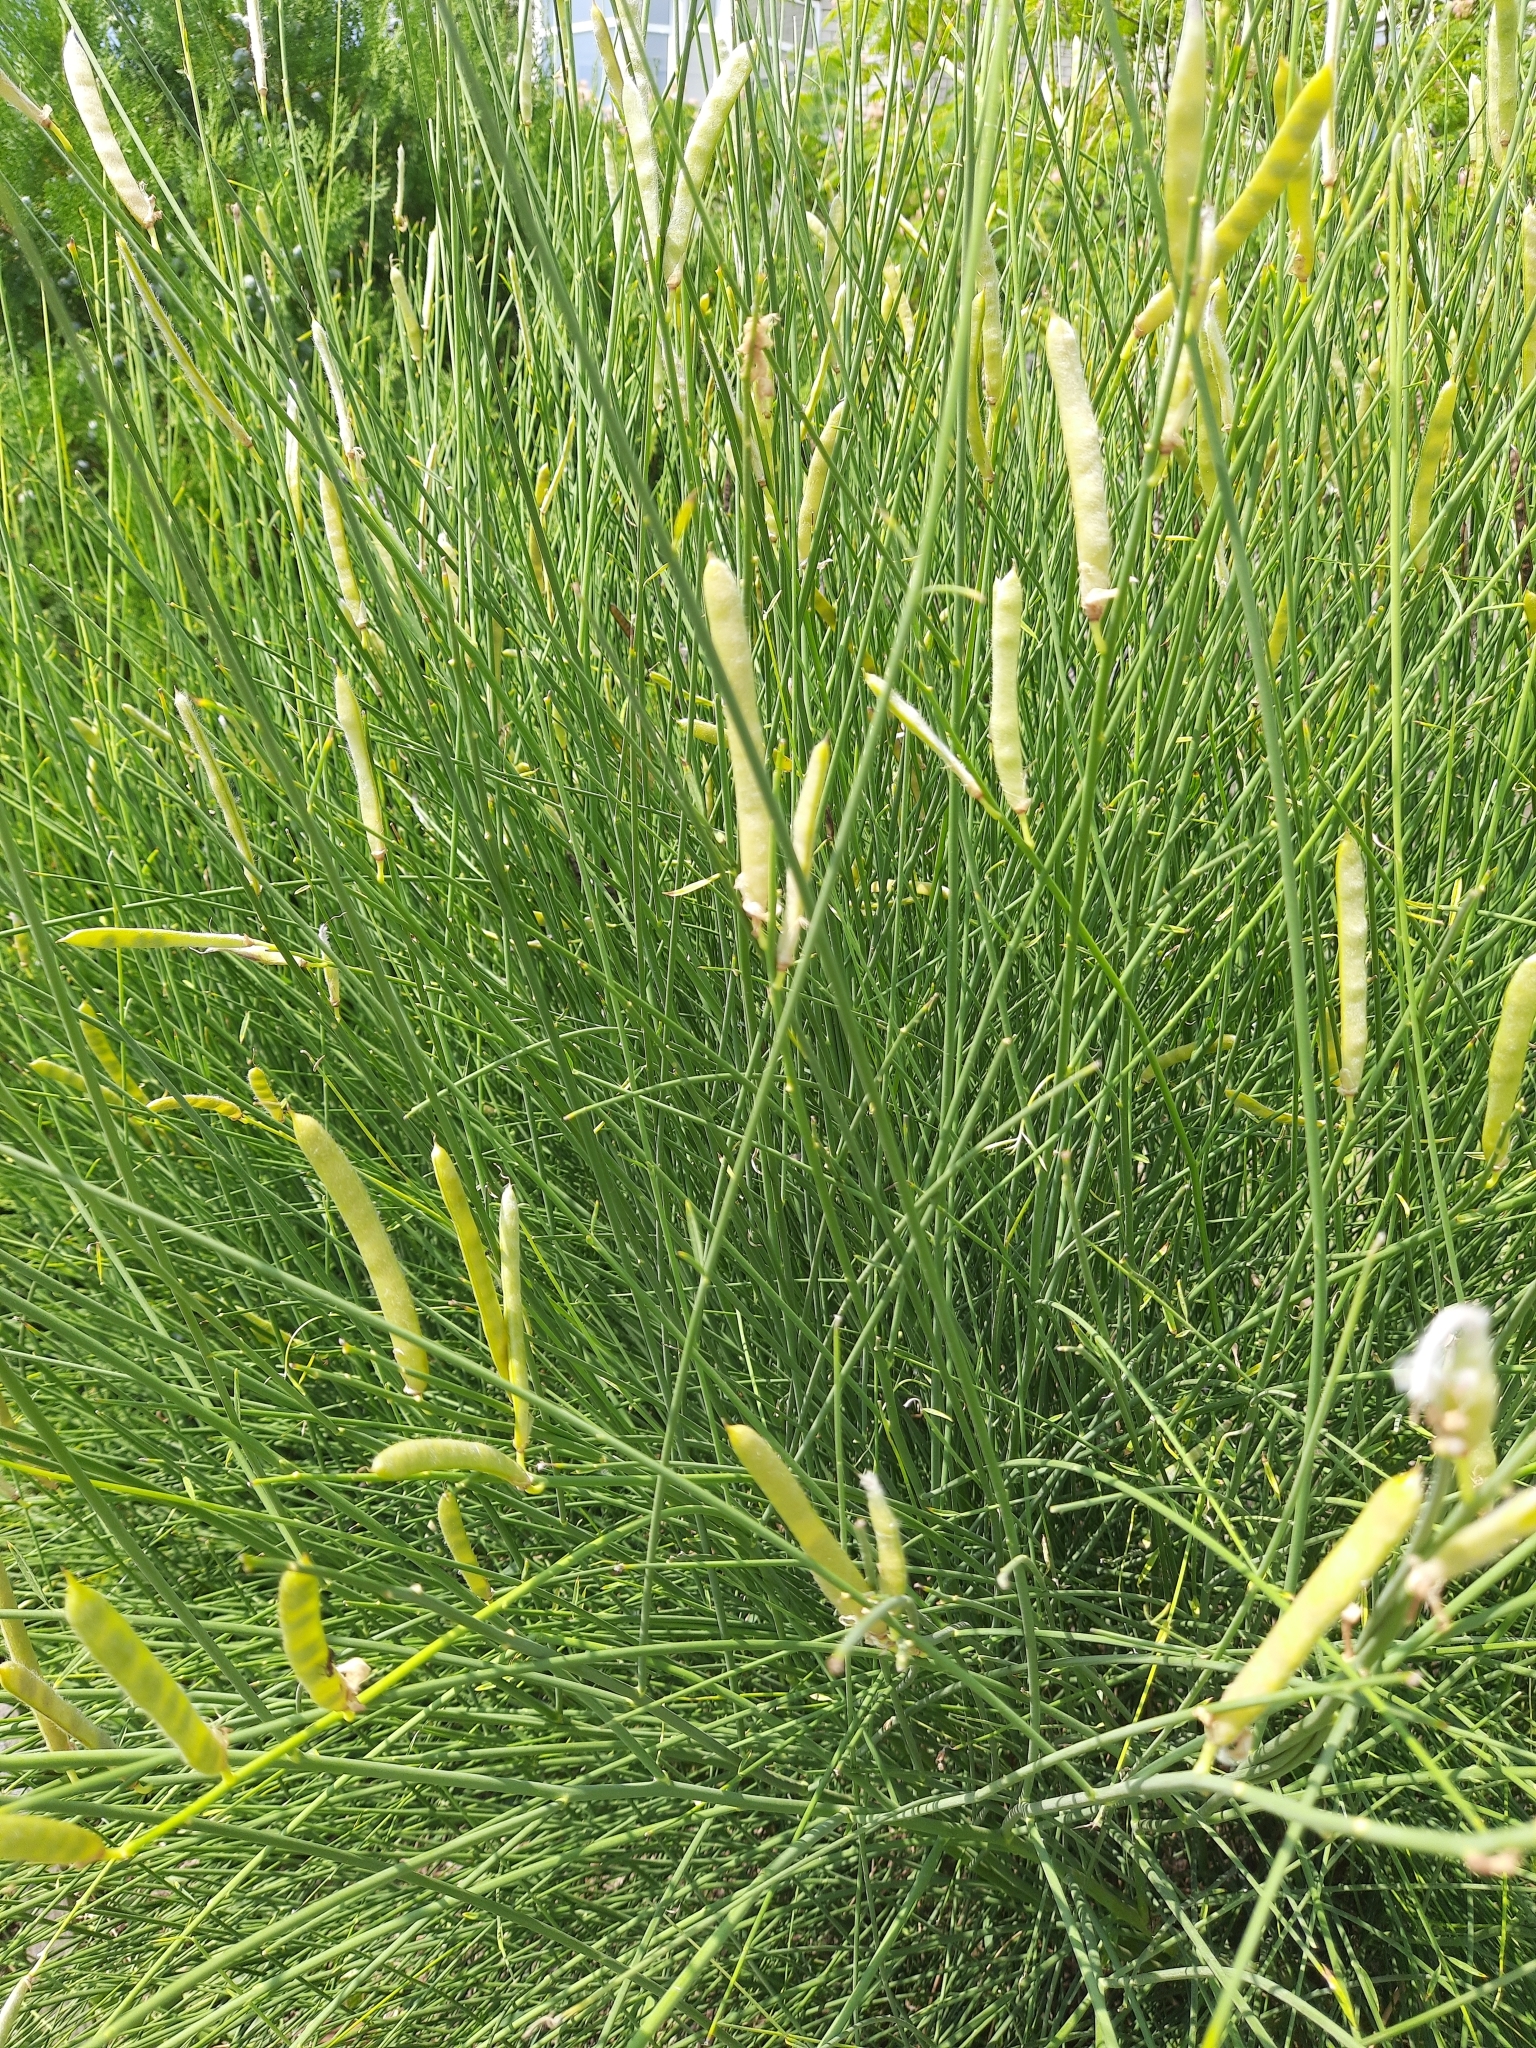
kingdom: Plantae
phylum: Tracheophyta
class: Magnoliopsida
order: Fabales
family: Fabaceae
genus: Spartium
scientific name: Spartium junceum
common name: Spanish broom
